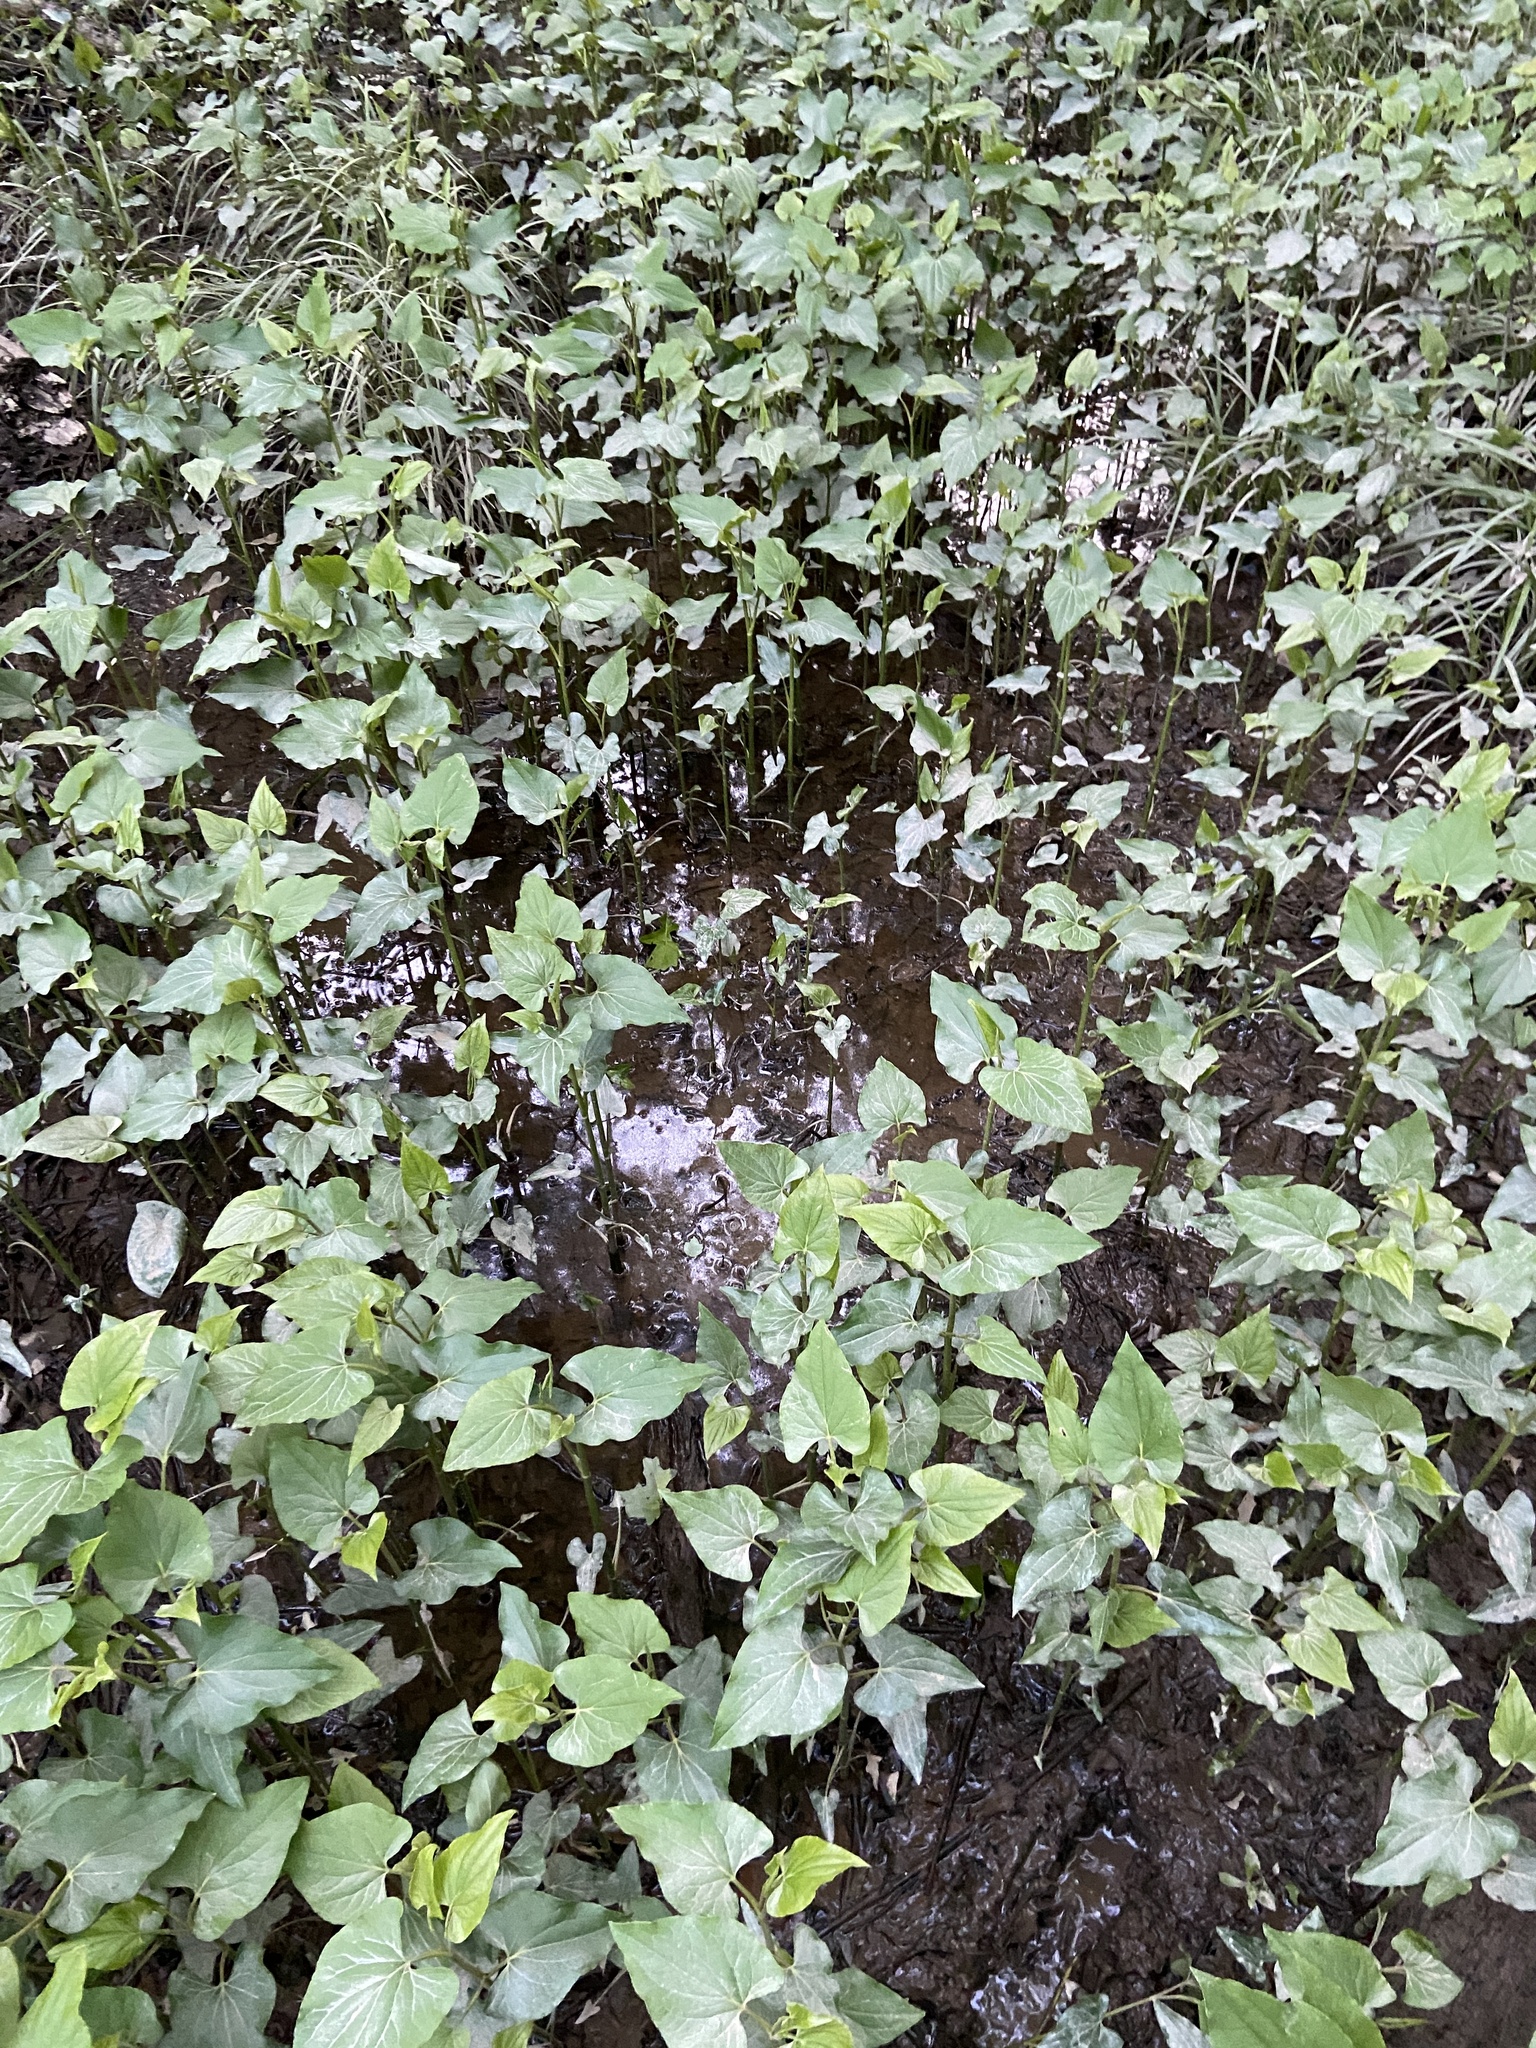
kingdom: Plantae
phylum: Tracheophyta
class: Magnoliopsida
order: Piperales
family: Saururaceae
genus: Saururus
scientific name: Saururus cernuus
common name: Lizard's-tail
